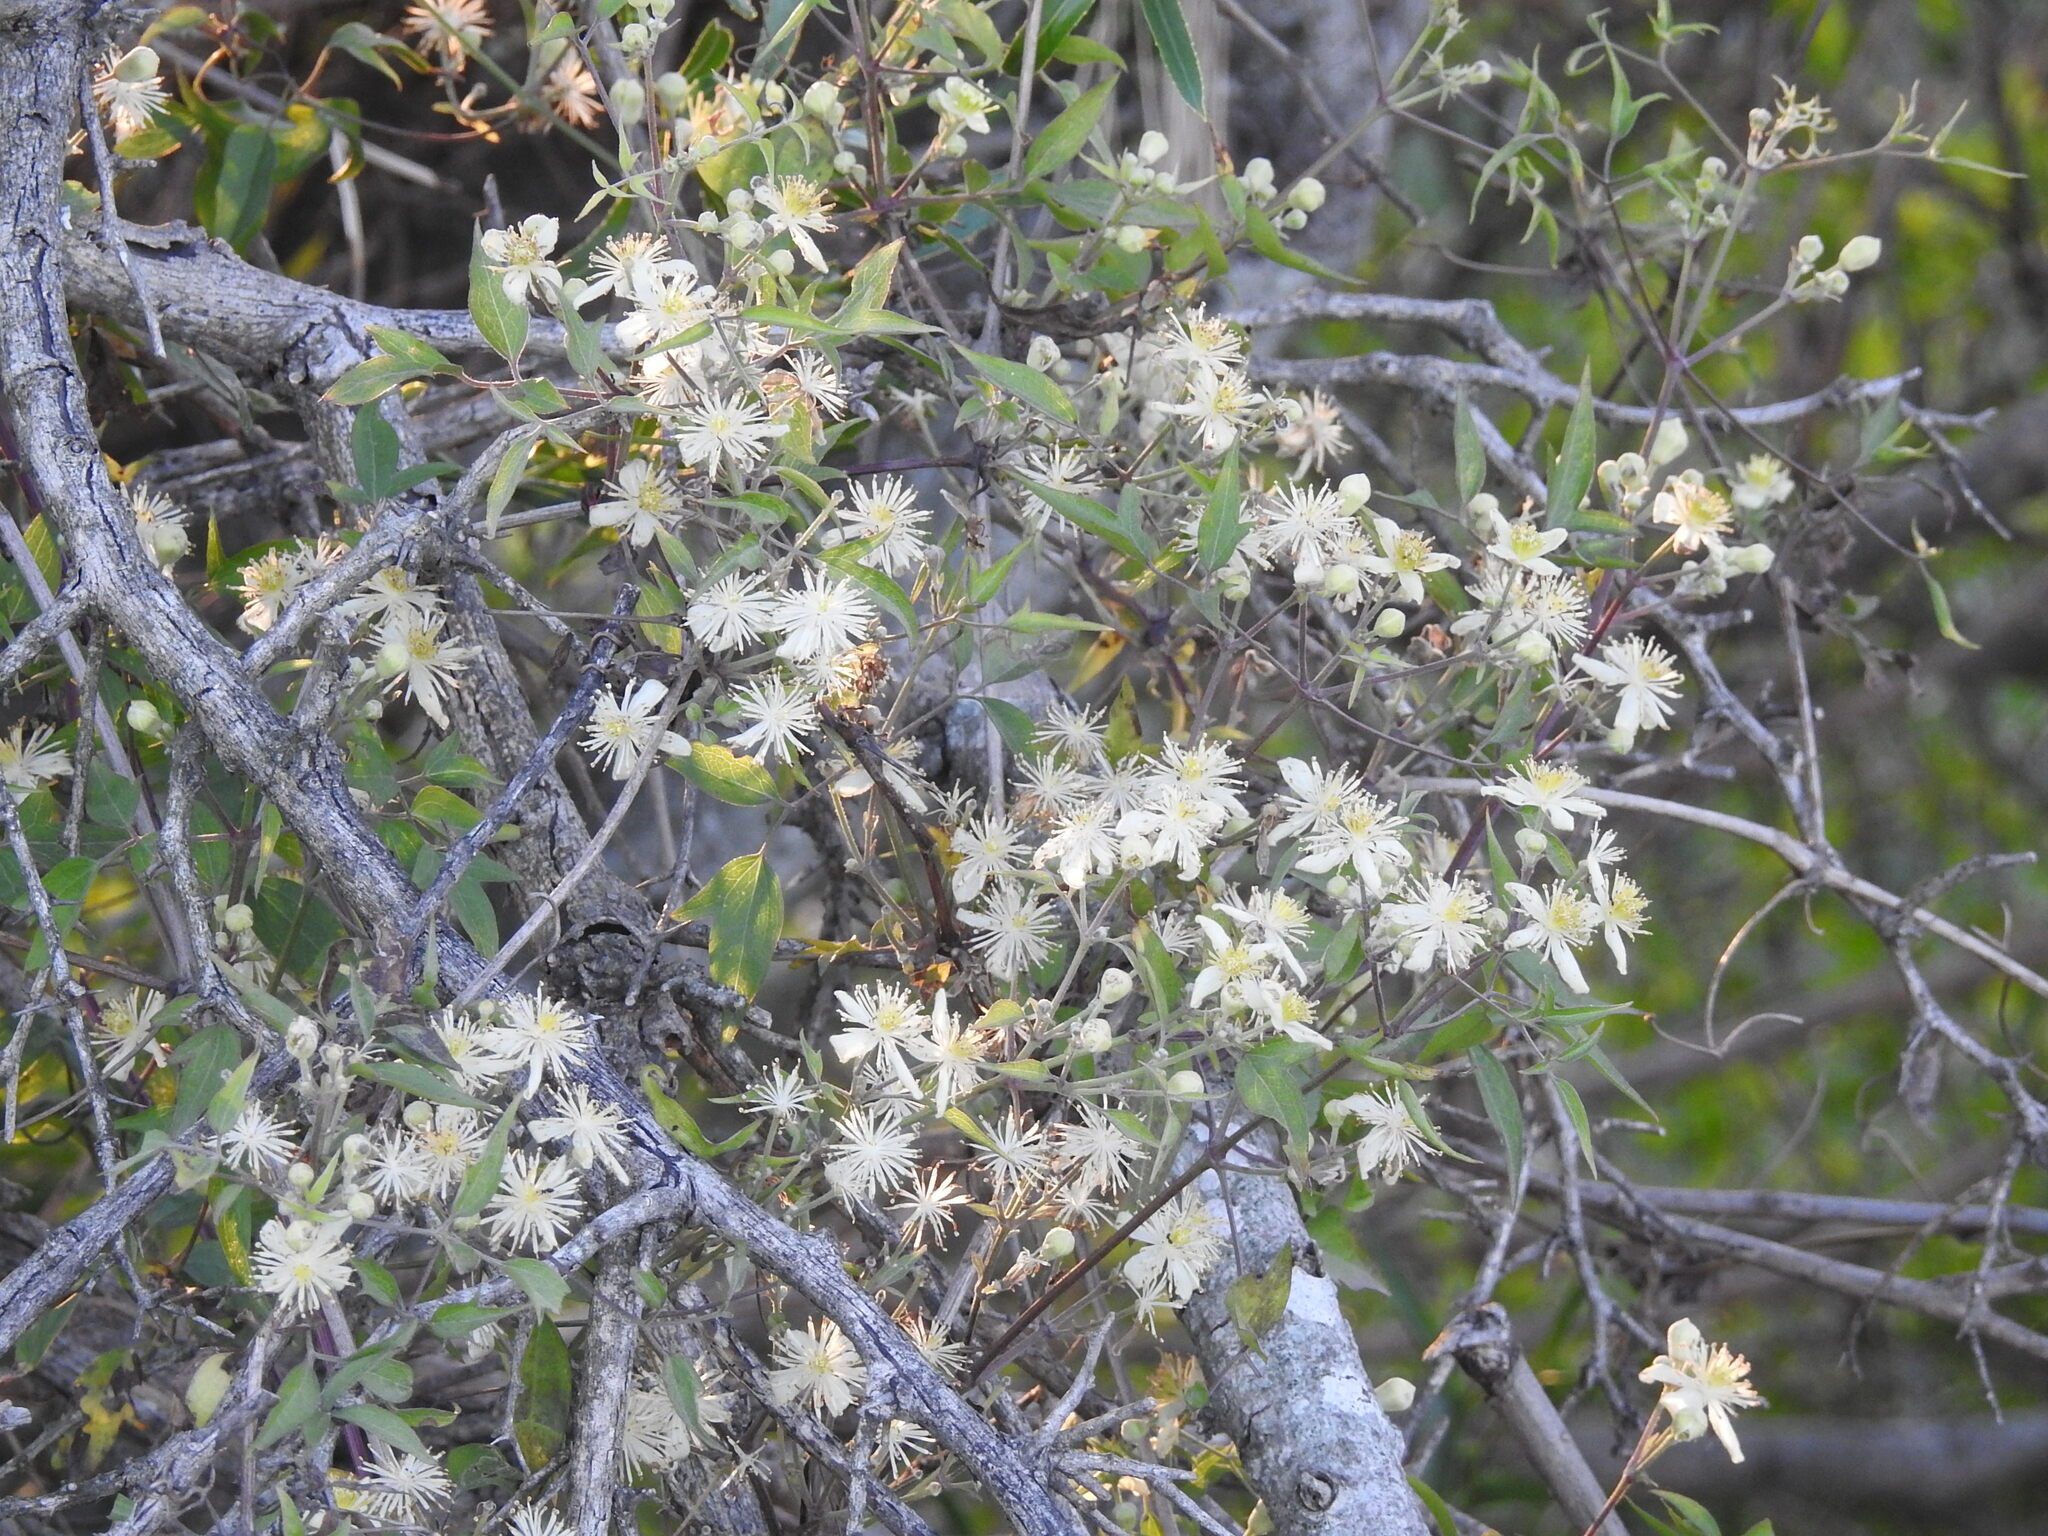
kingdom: Plantae
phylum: Tracheophyta
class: Magnoliopsida
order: Ranunculales
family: Ranunculaceae
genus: Clematis
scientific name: Clematis montevidensis
